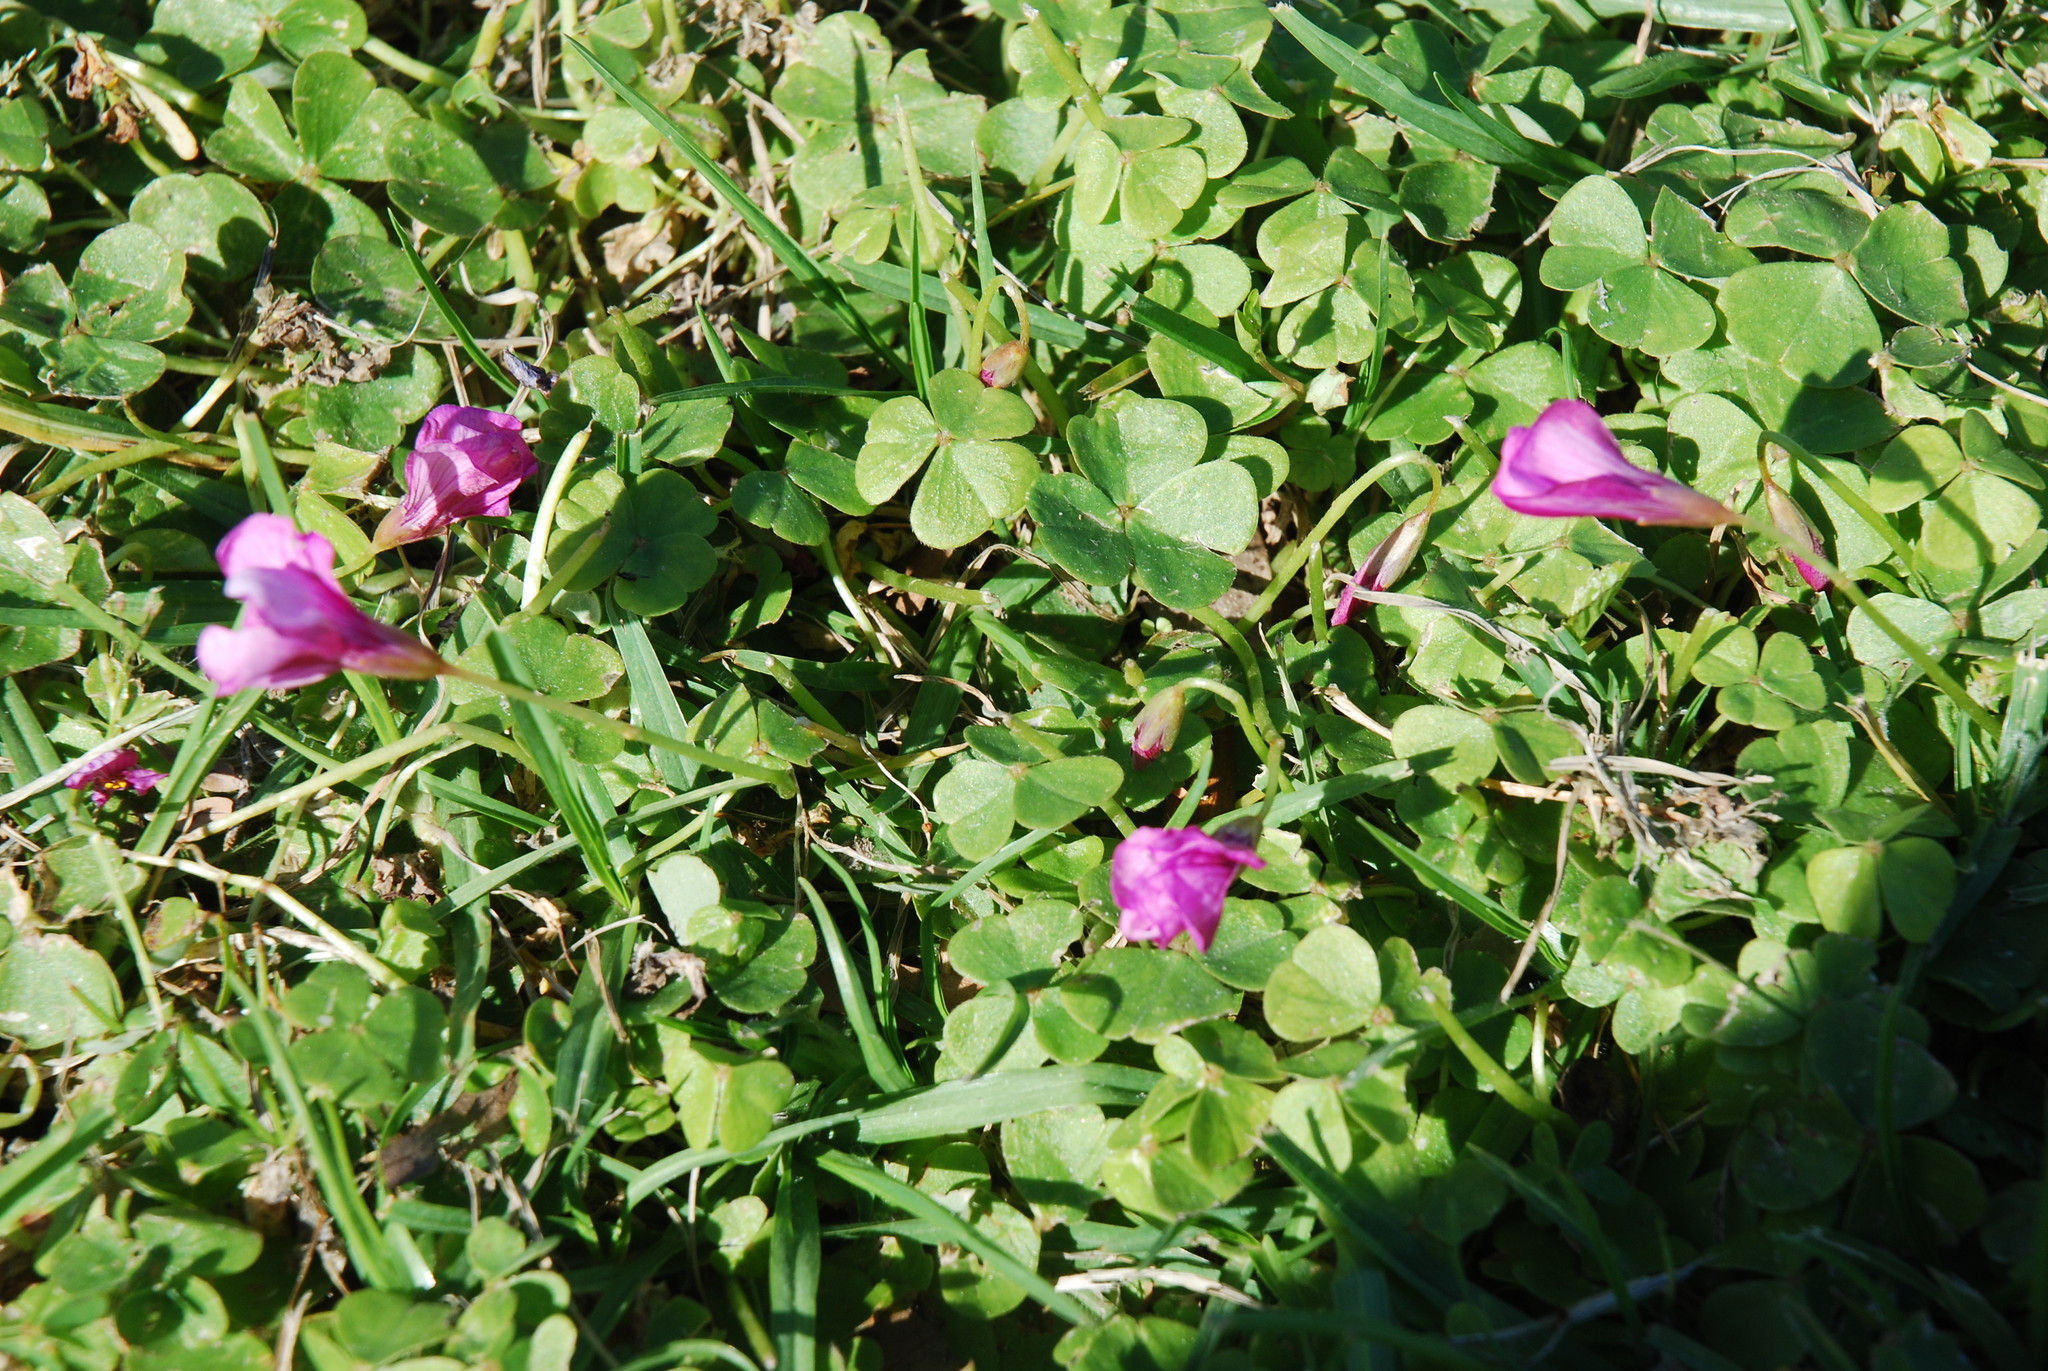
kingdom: Plantae
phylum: Tracheophyta
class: Magnoliopsida
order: Oxalidales
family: Oxalidaceae
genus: Oxalis
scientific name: Oxalis brasiliensis
